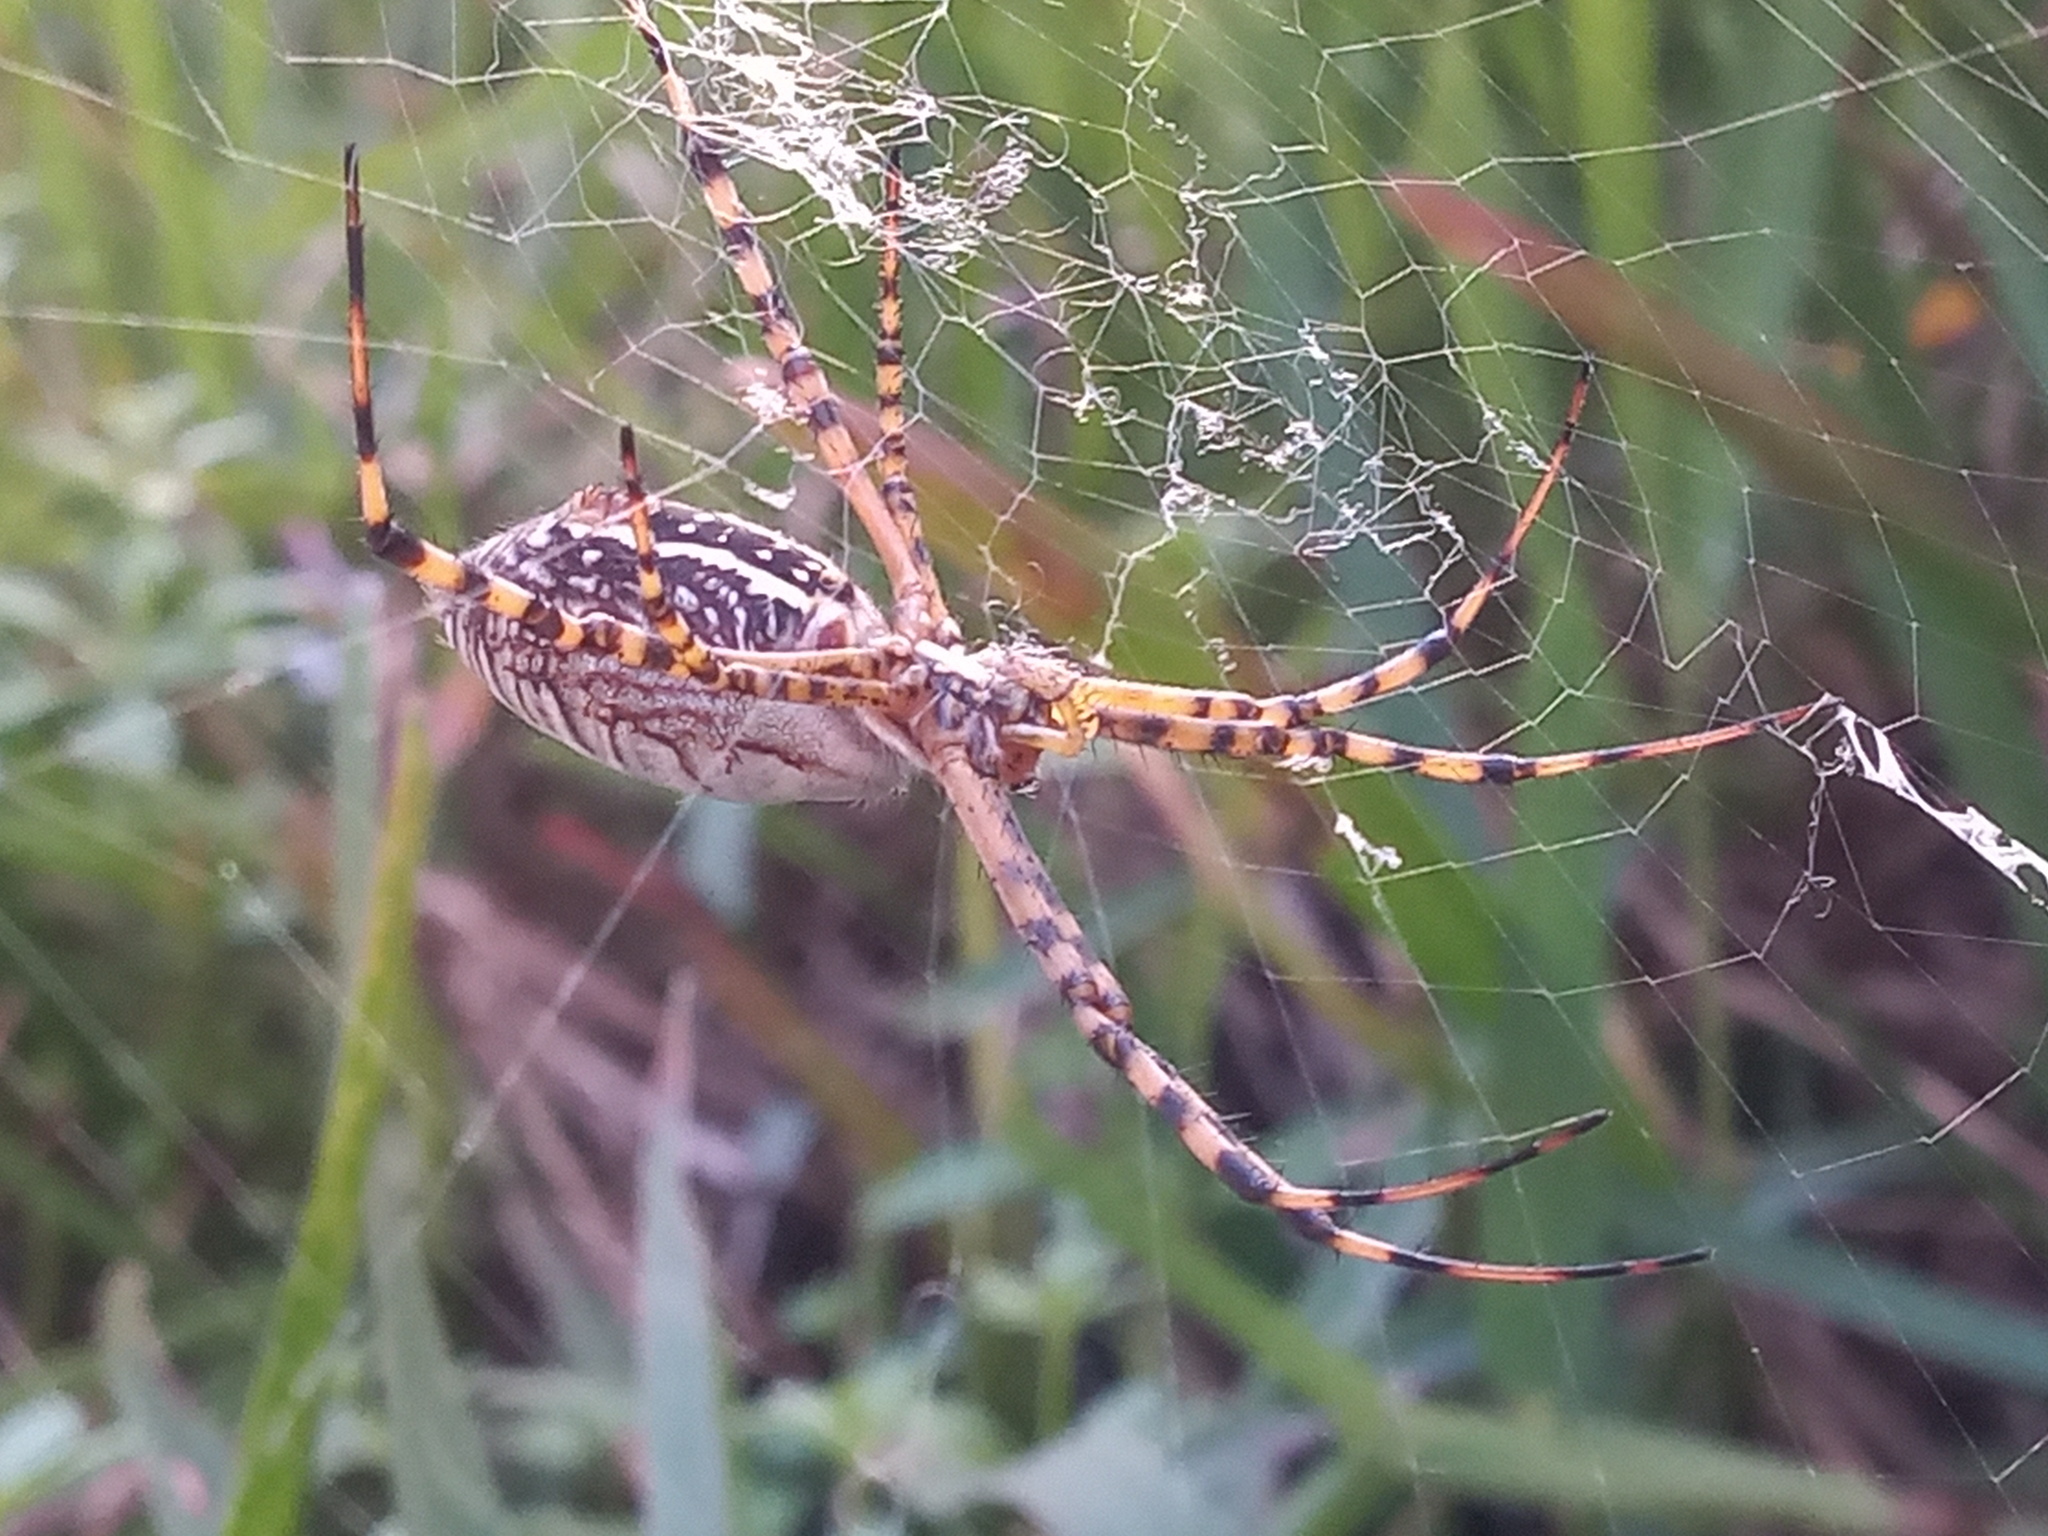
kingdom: Animalia
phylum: Arthropoda
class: Arachnida
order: Araneae
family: Araneidae
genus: Argiope
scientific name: Argiope trifasciata
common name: Banded garden spider
